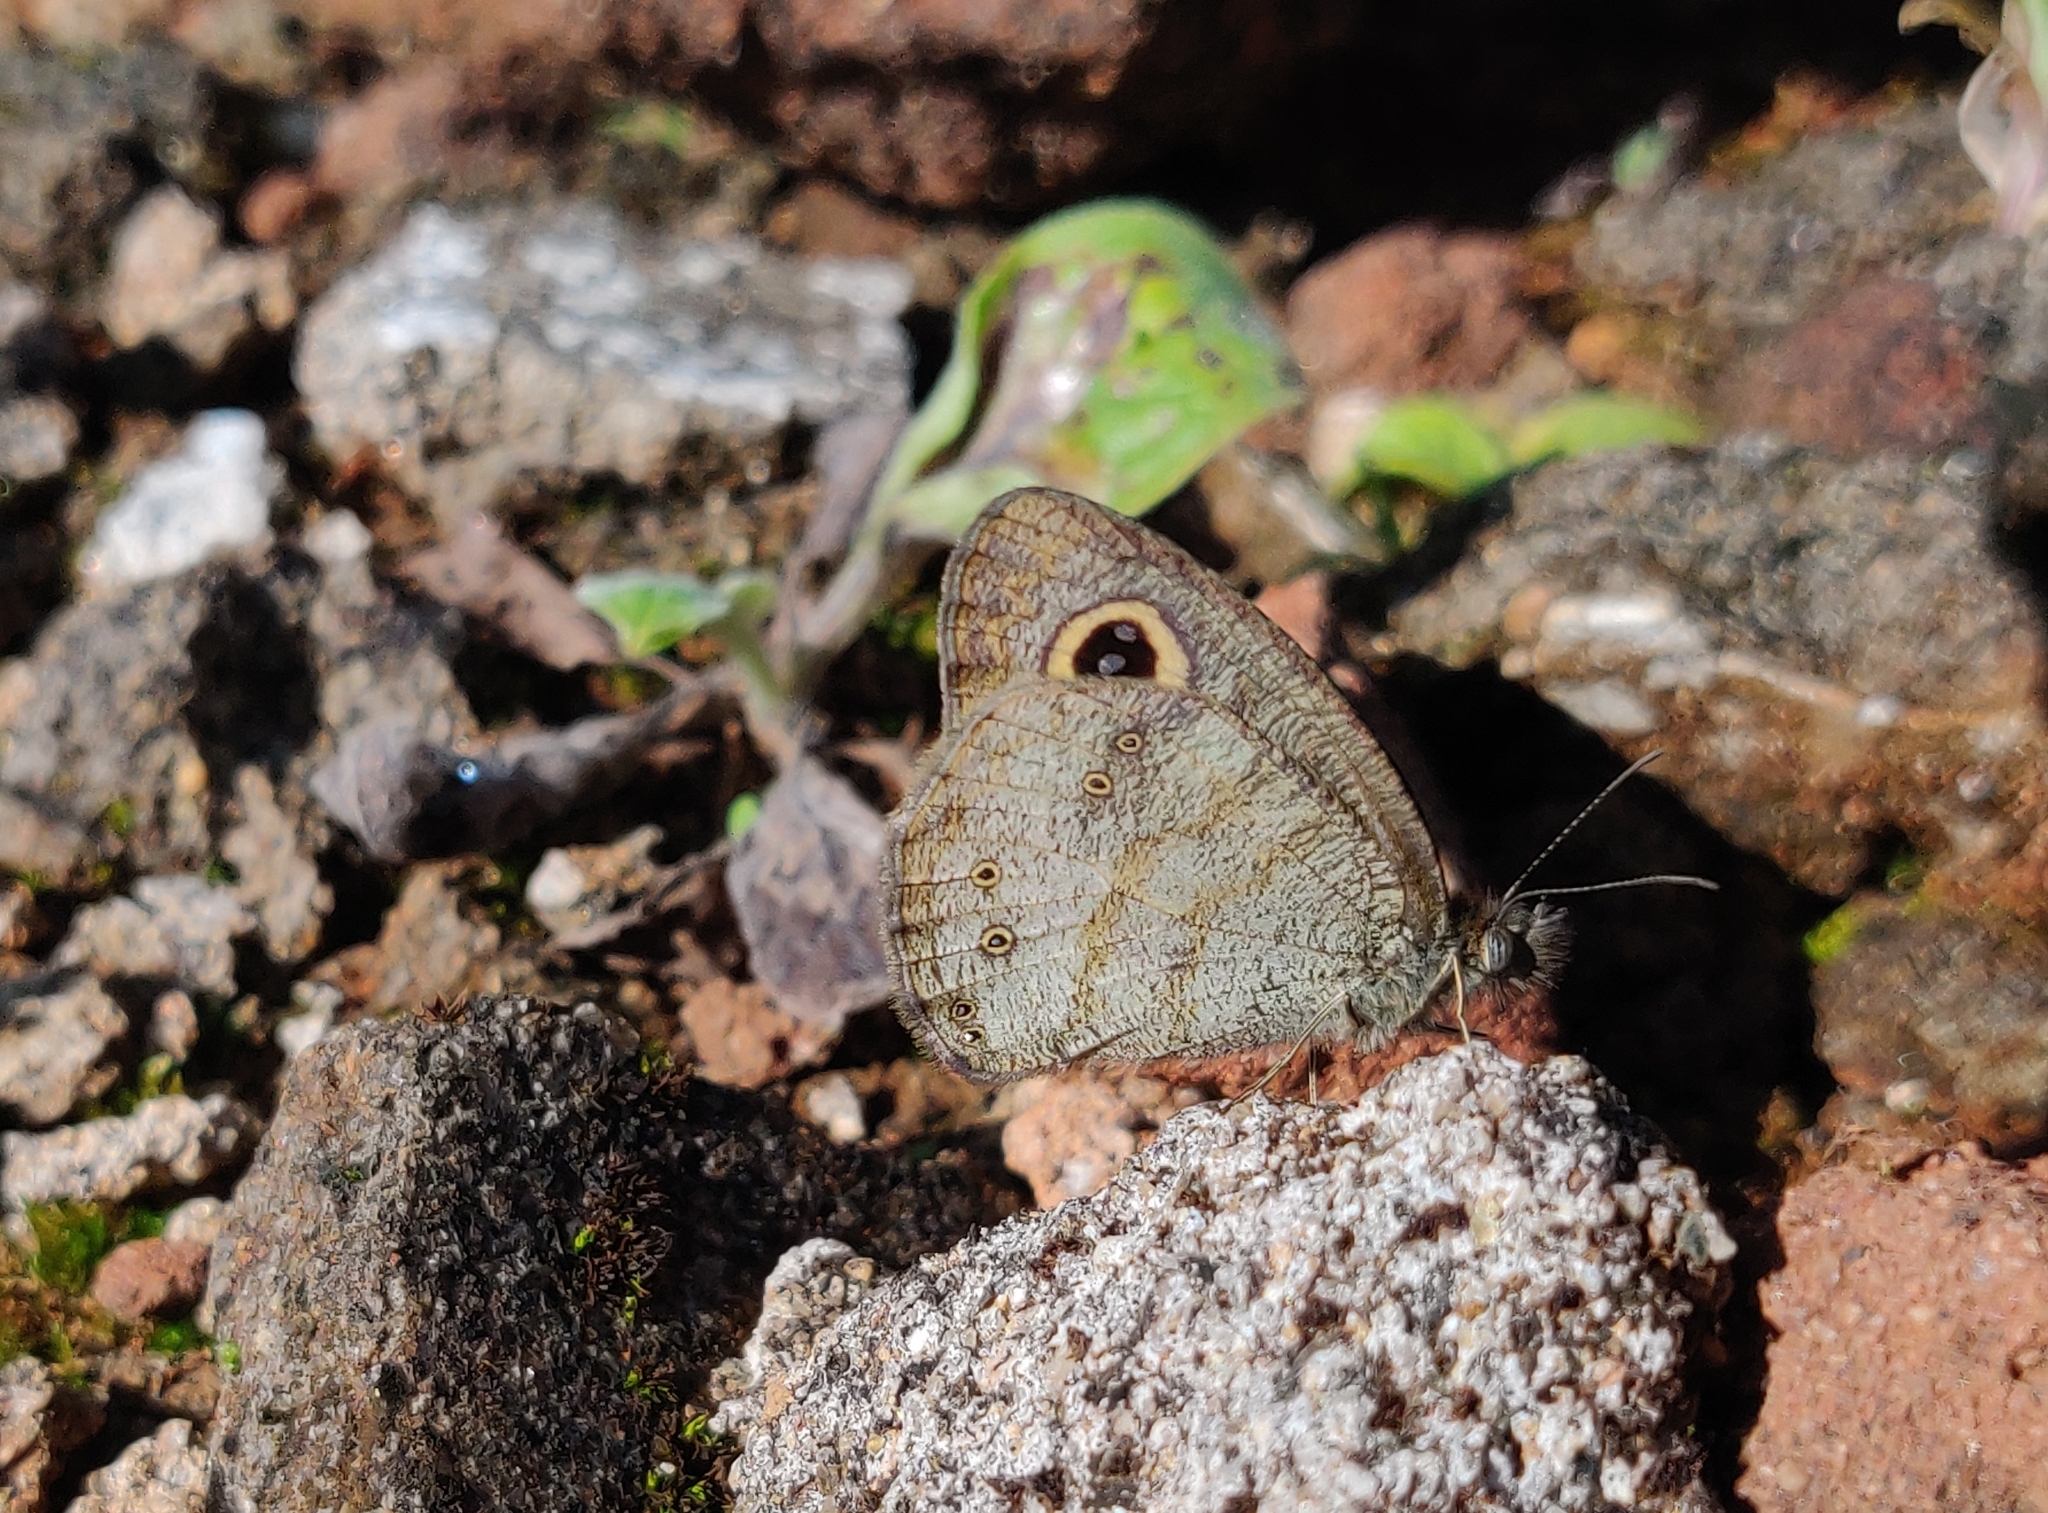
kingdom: Animalia
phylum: Arthropoda
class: Insecta
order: Lepidoptera
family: Nymphalidae
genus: Ypthima
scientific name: Ypthima baldus
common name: Common five-ring
